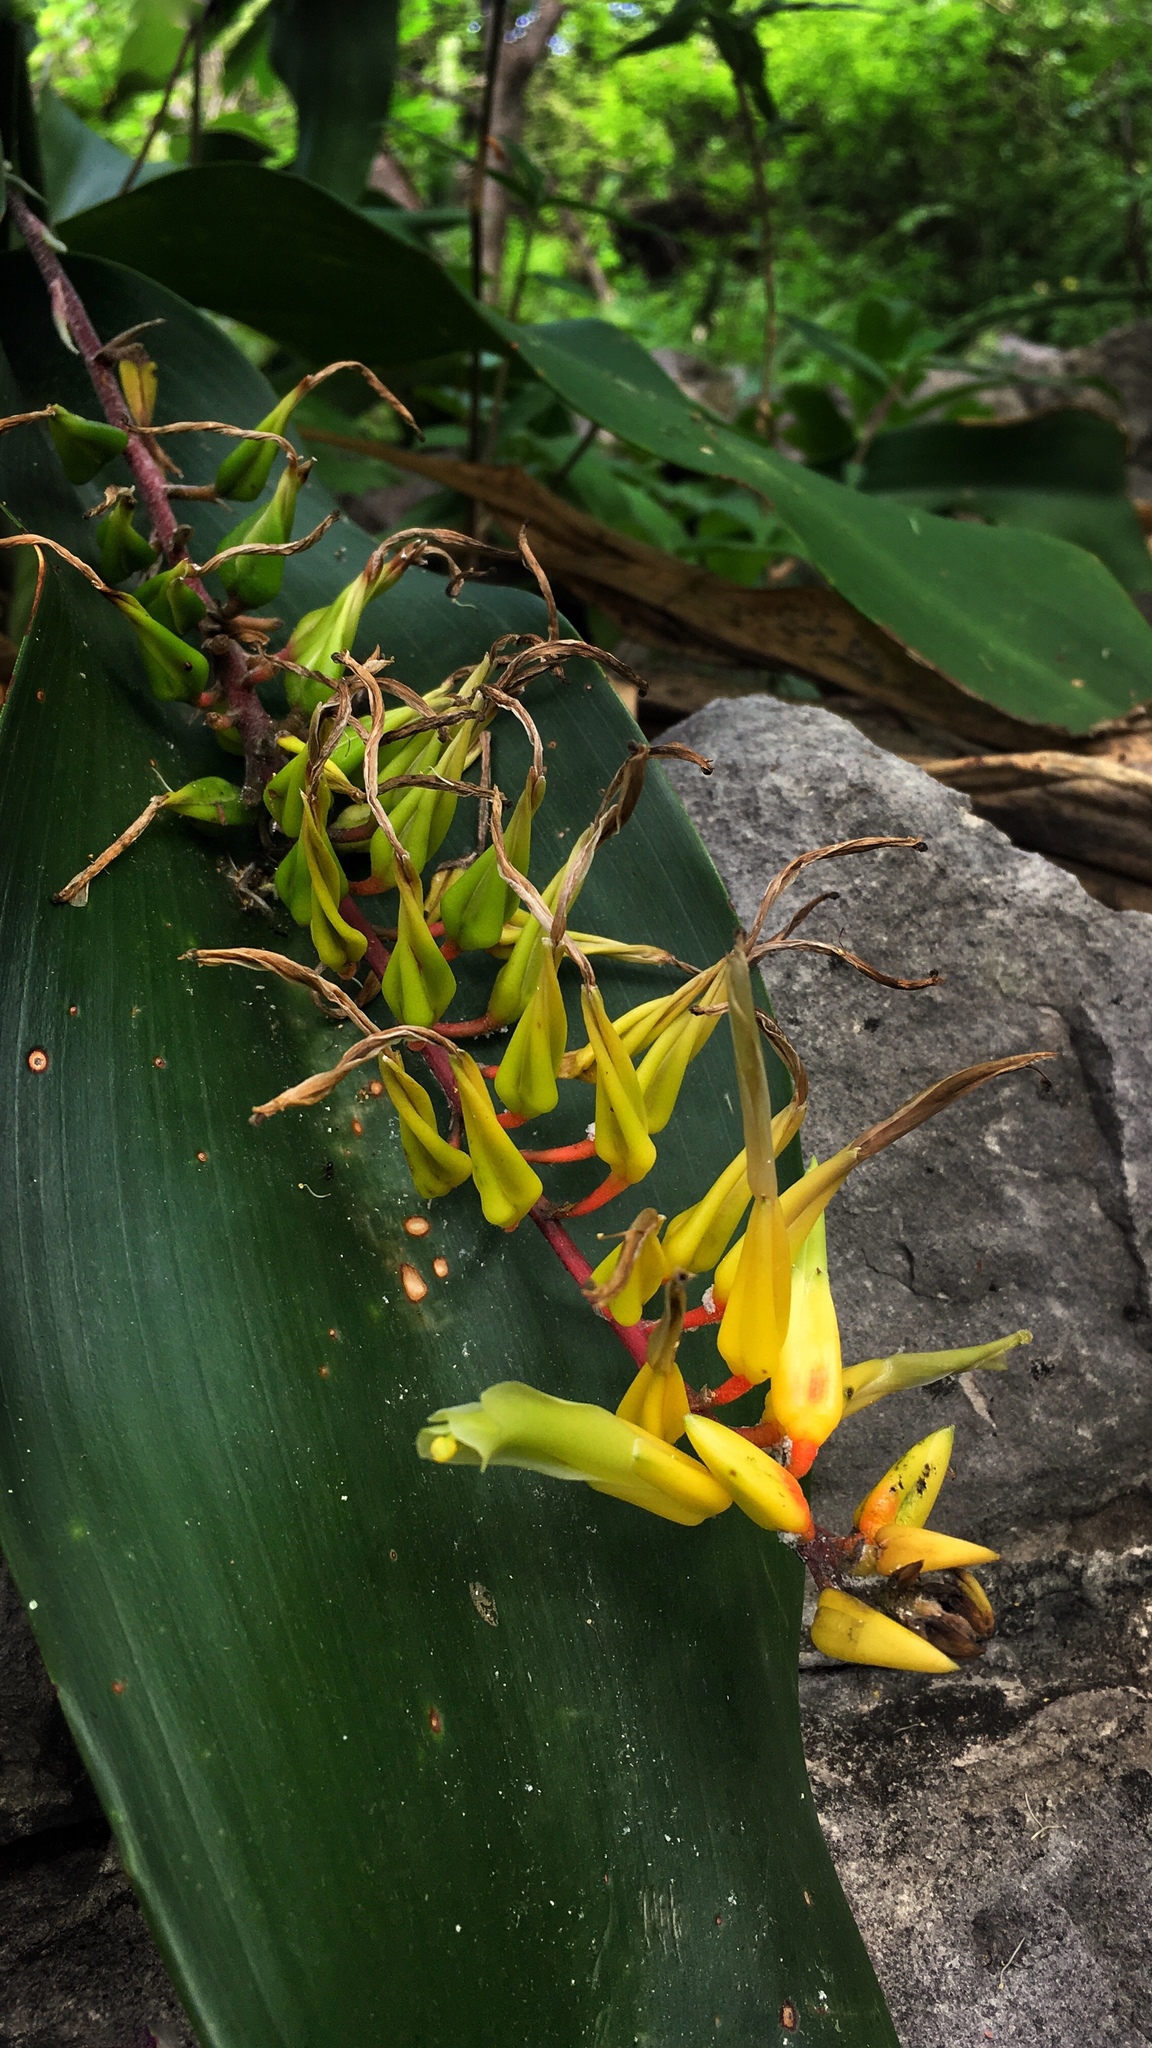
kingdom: Plantae
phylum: Tracheophyta
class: Liliopsida
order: Poales
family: Bromeliaceae
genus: Pitcairnia
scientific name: Pitcairnia chiapensis
